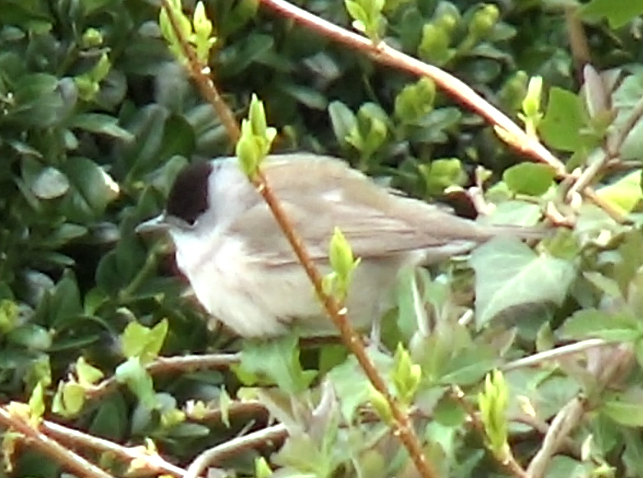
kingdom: Animalia
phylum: Chordata
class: Aves
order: Passeriformes
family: Sylviidae
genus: Sylvia
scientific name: Sylvia atricapilla
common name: Eurasian blackcap
